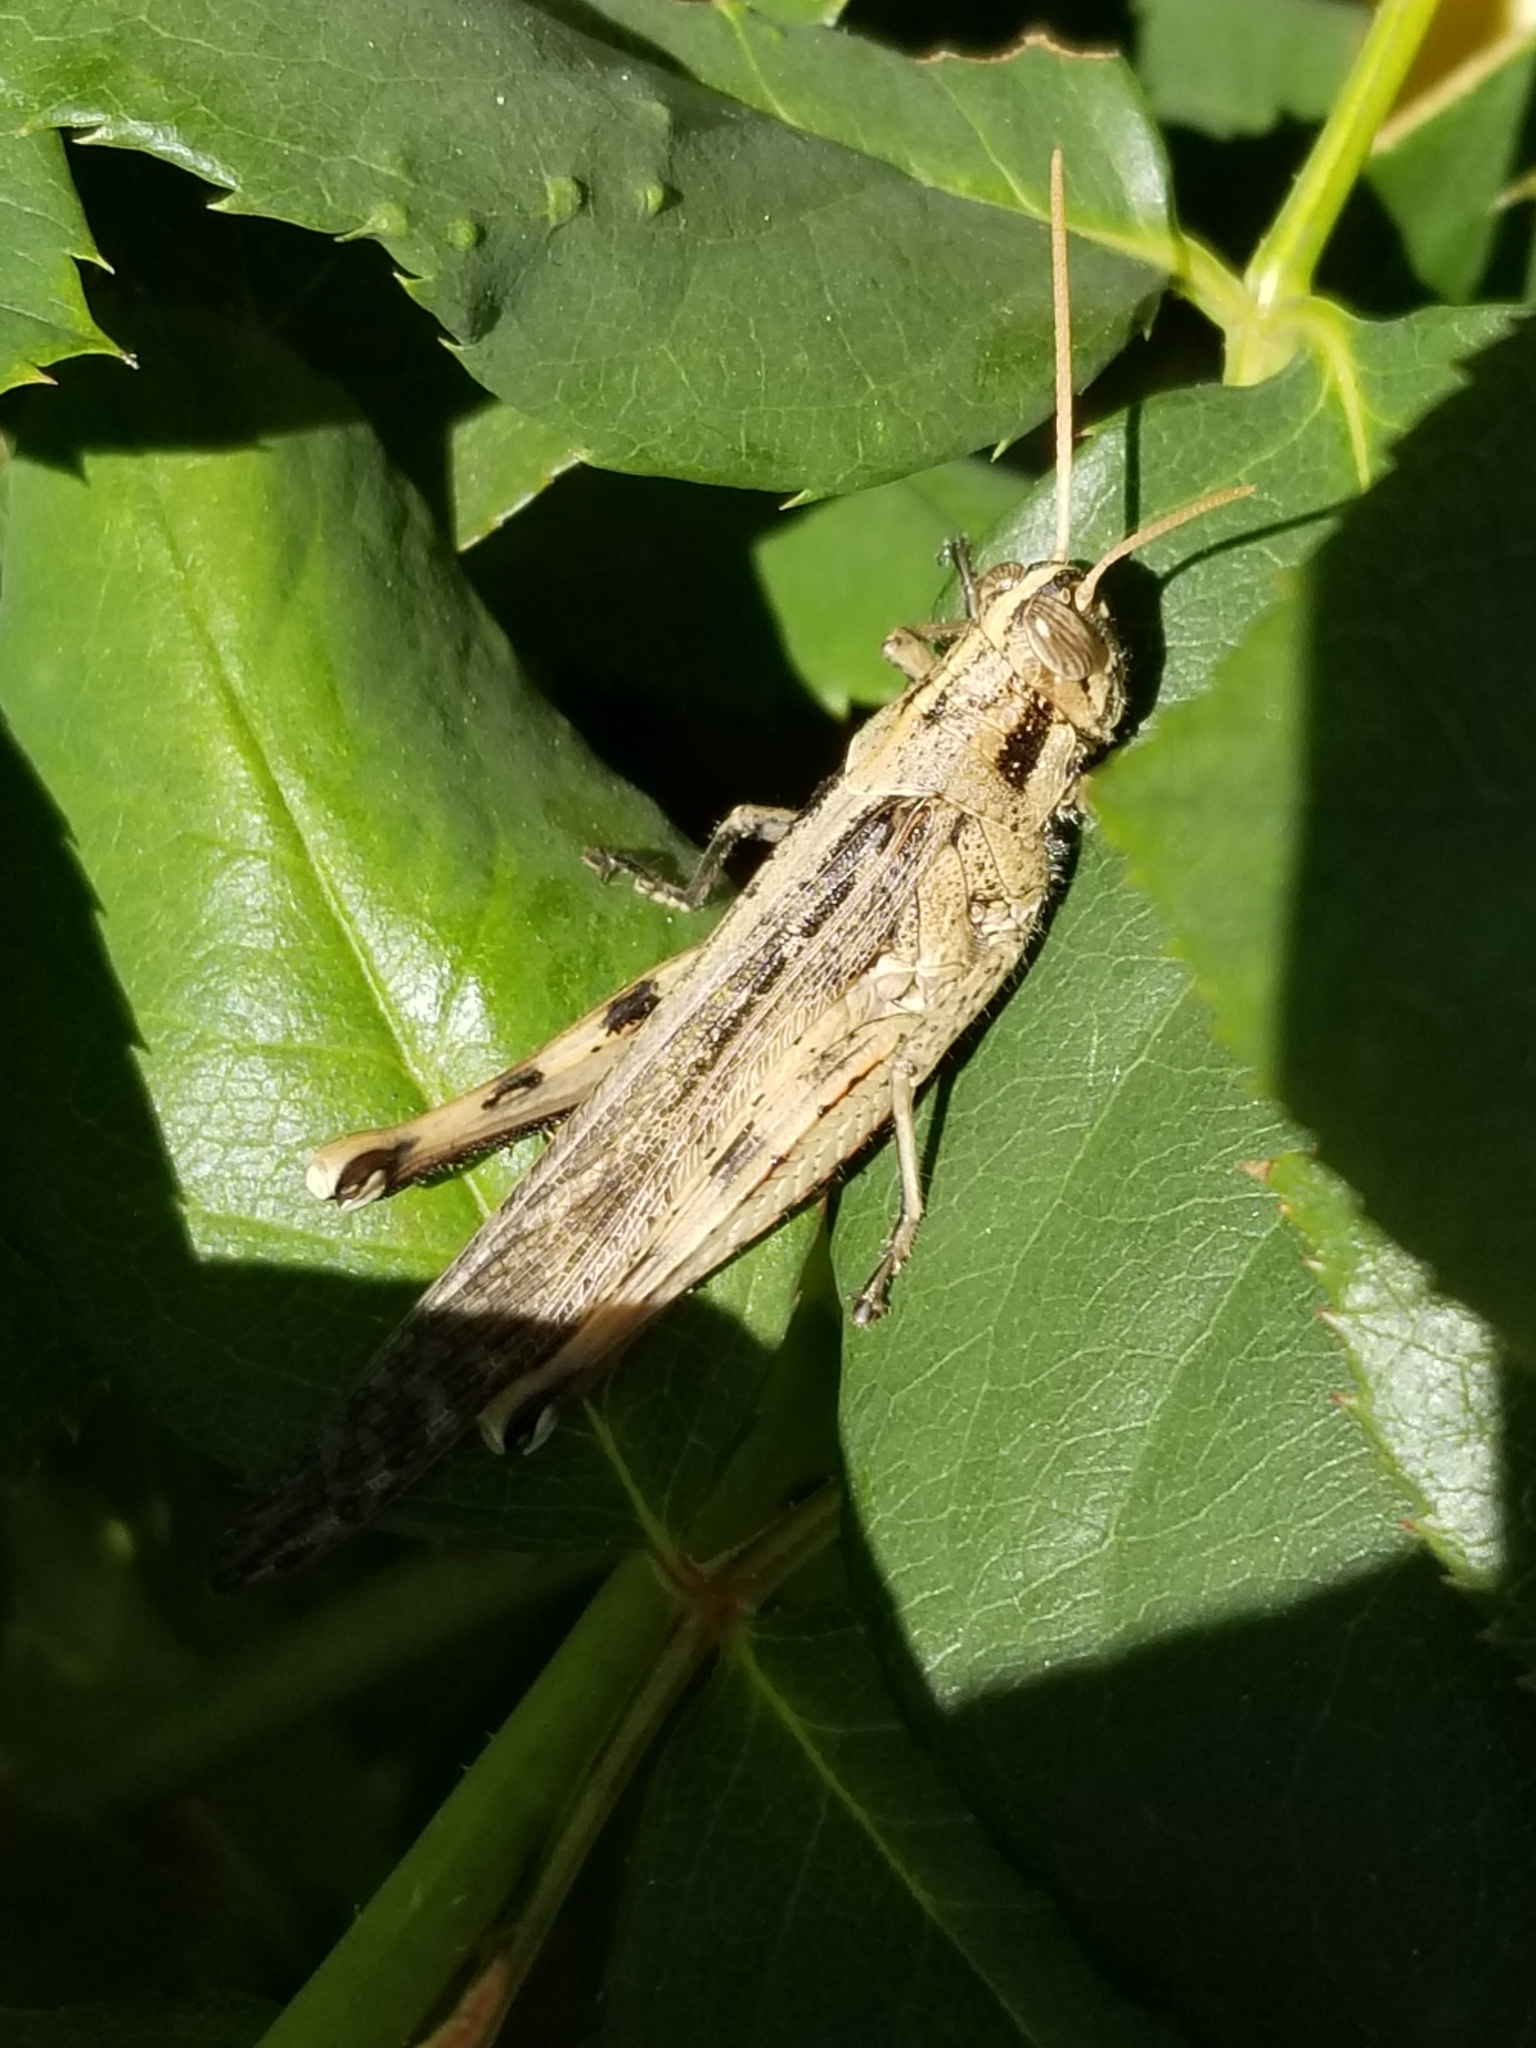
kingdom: Animalia
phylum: Arthropoda
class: Insecta
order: Orthoptera
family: Acrididae
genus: Schistocerca
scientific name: Schistocerca nitens
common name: Vagrant grasshopper
